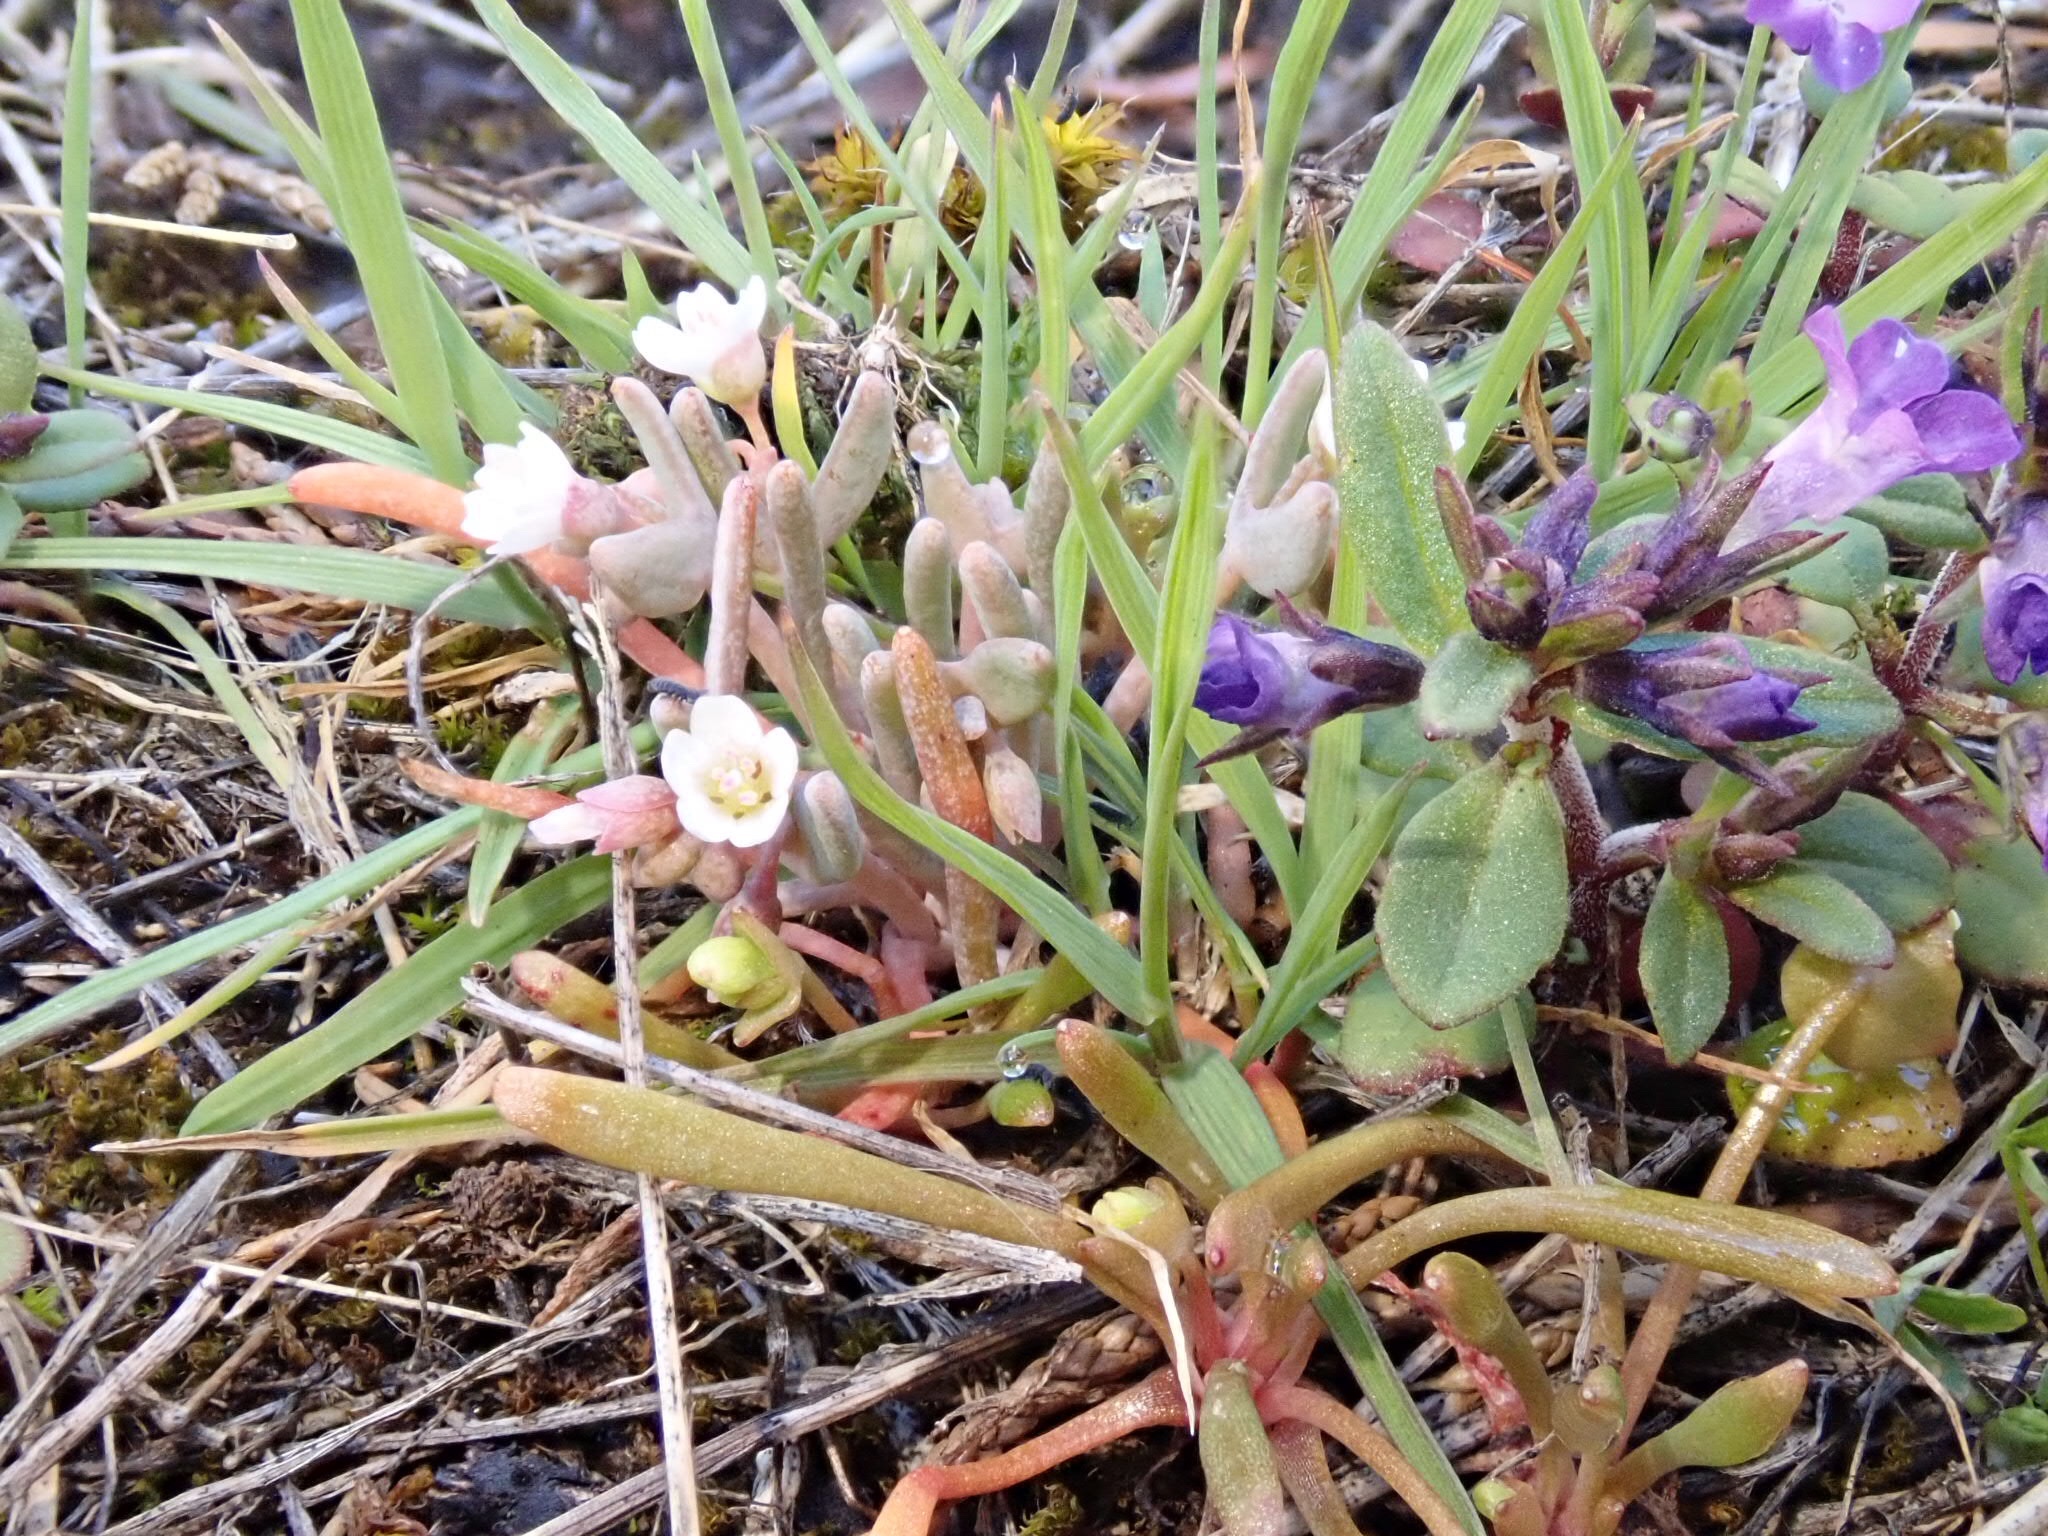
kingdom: Plantae
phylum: Tracheophyta
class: Magnoliopsida
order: Caryophyllales
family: Montiaceae
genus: Claytonia
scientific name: Claytonia exigua
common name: Pale spring beauty
